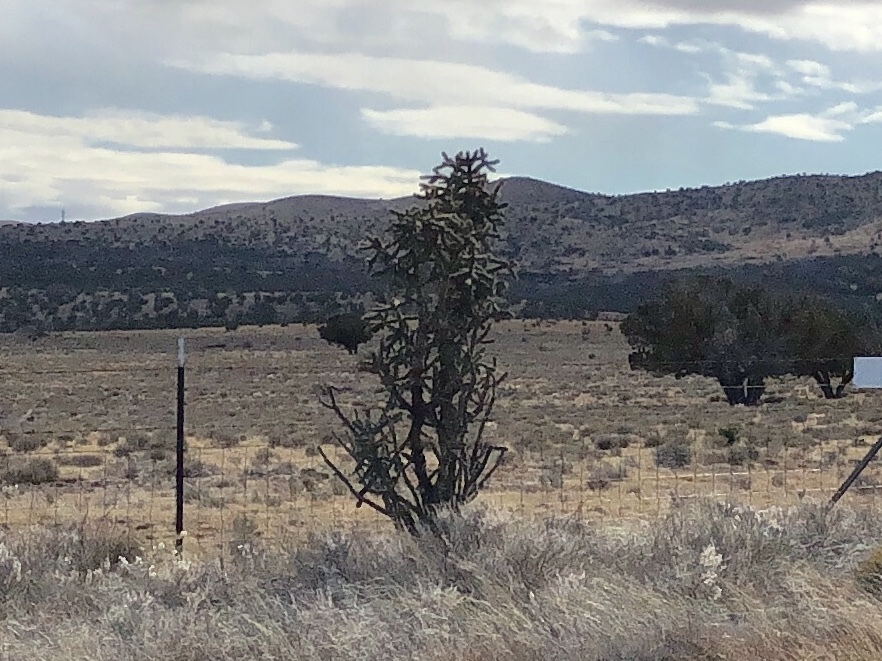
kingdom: Plantae
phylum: Tracheophyta
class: Magnoliopsida
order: Caryophyllales
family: Cactaceae
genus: Cylindropuntia
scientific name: Cylindropuntia imbricata
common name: Candelabrum cactus
